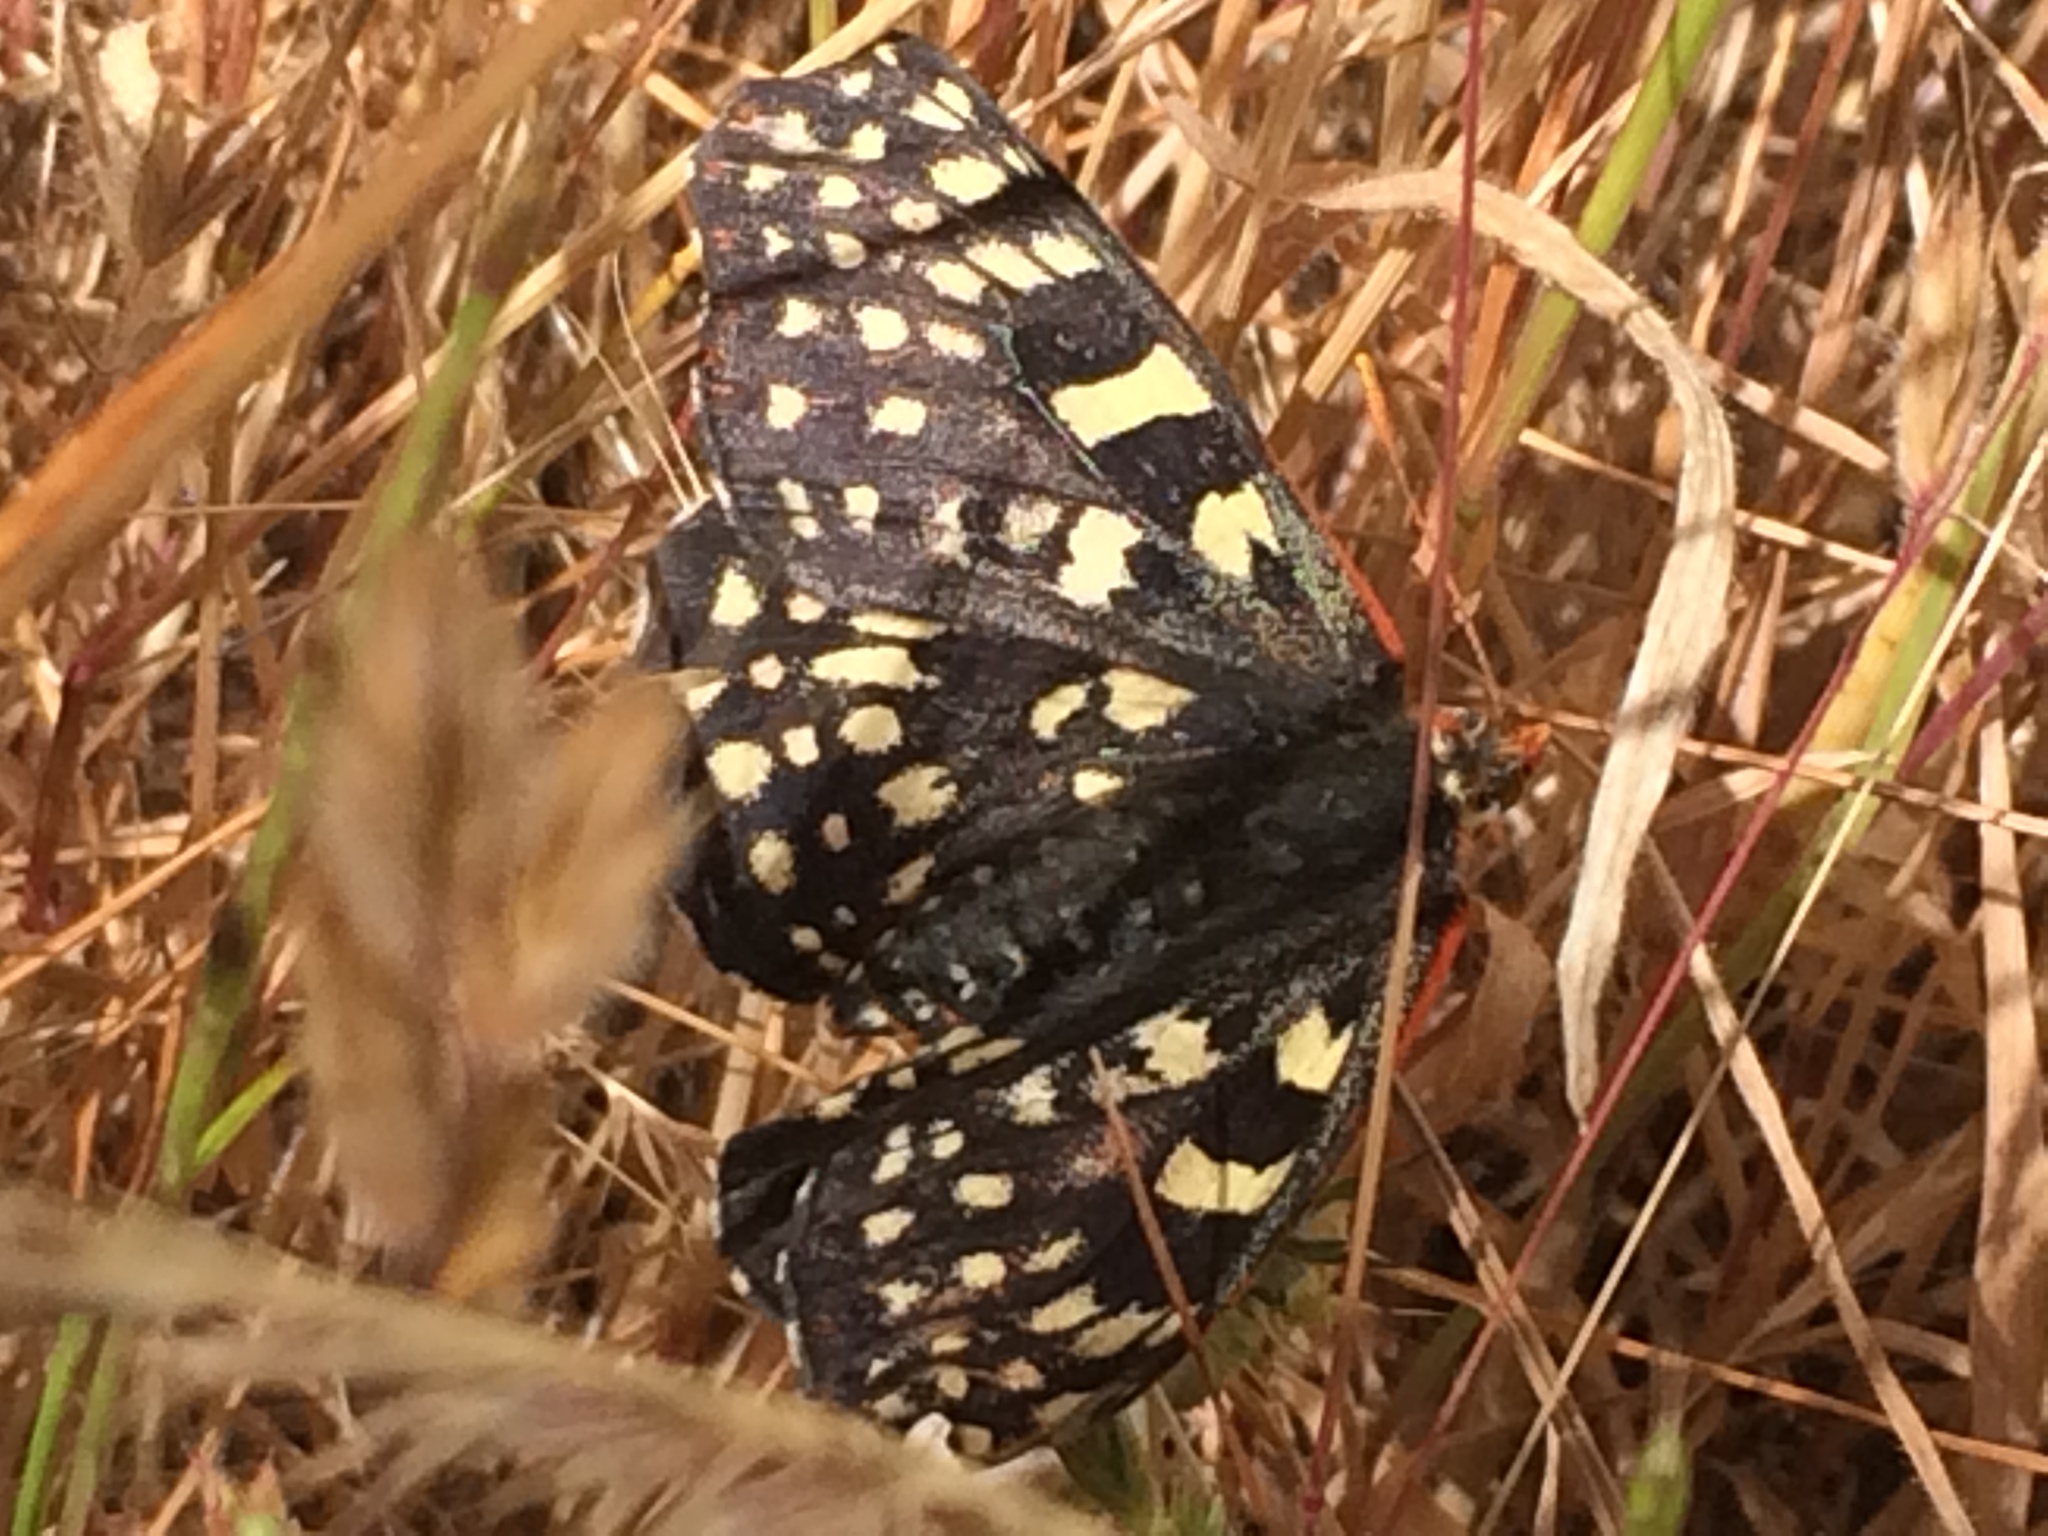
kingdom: Animalia
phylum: Arthropoda
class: Insecta
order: Lepidoptera
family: Nymphalidae
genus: Occidryas
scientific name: Occidryas chalcedona
